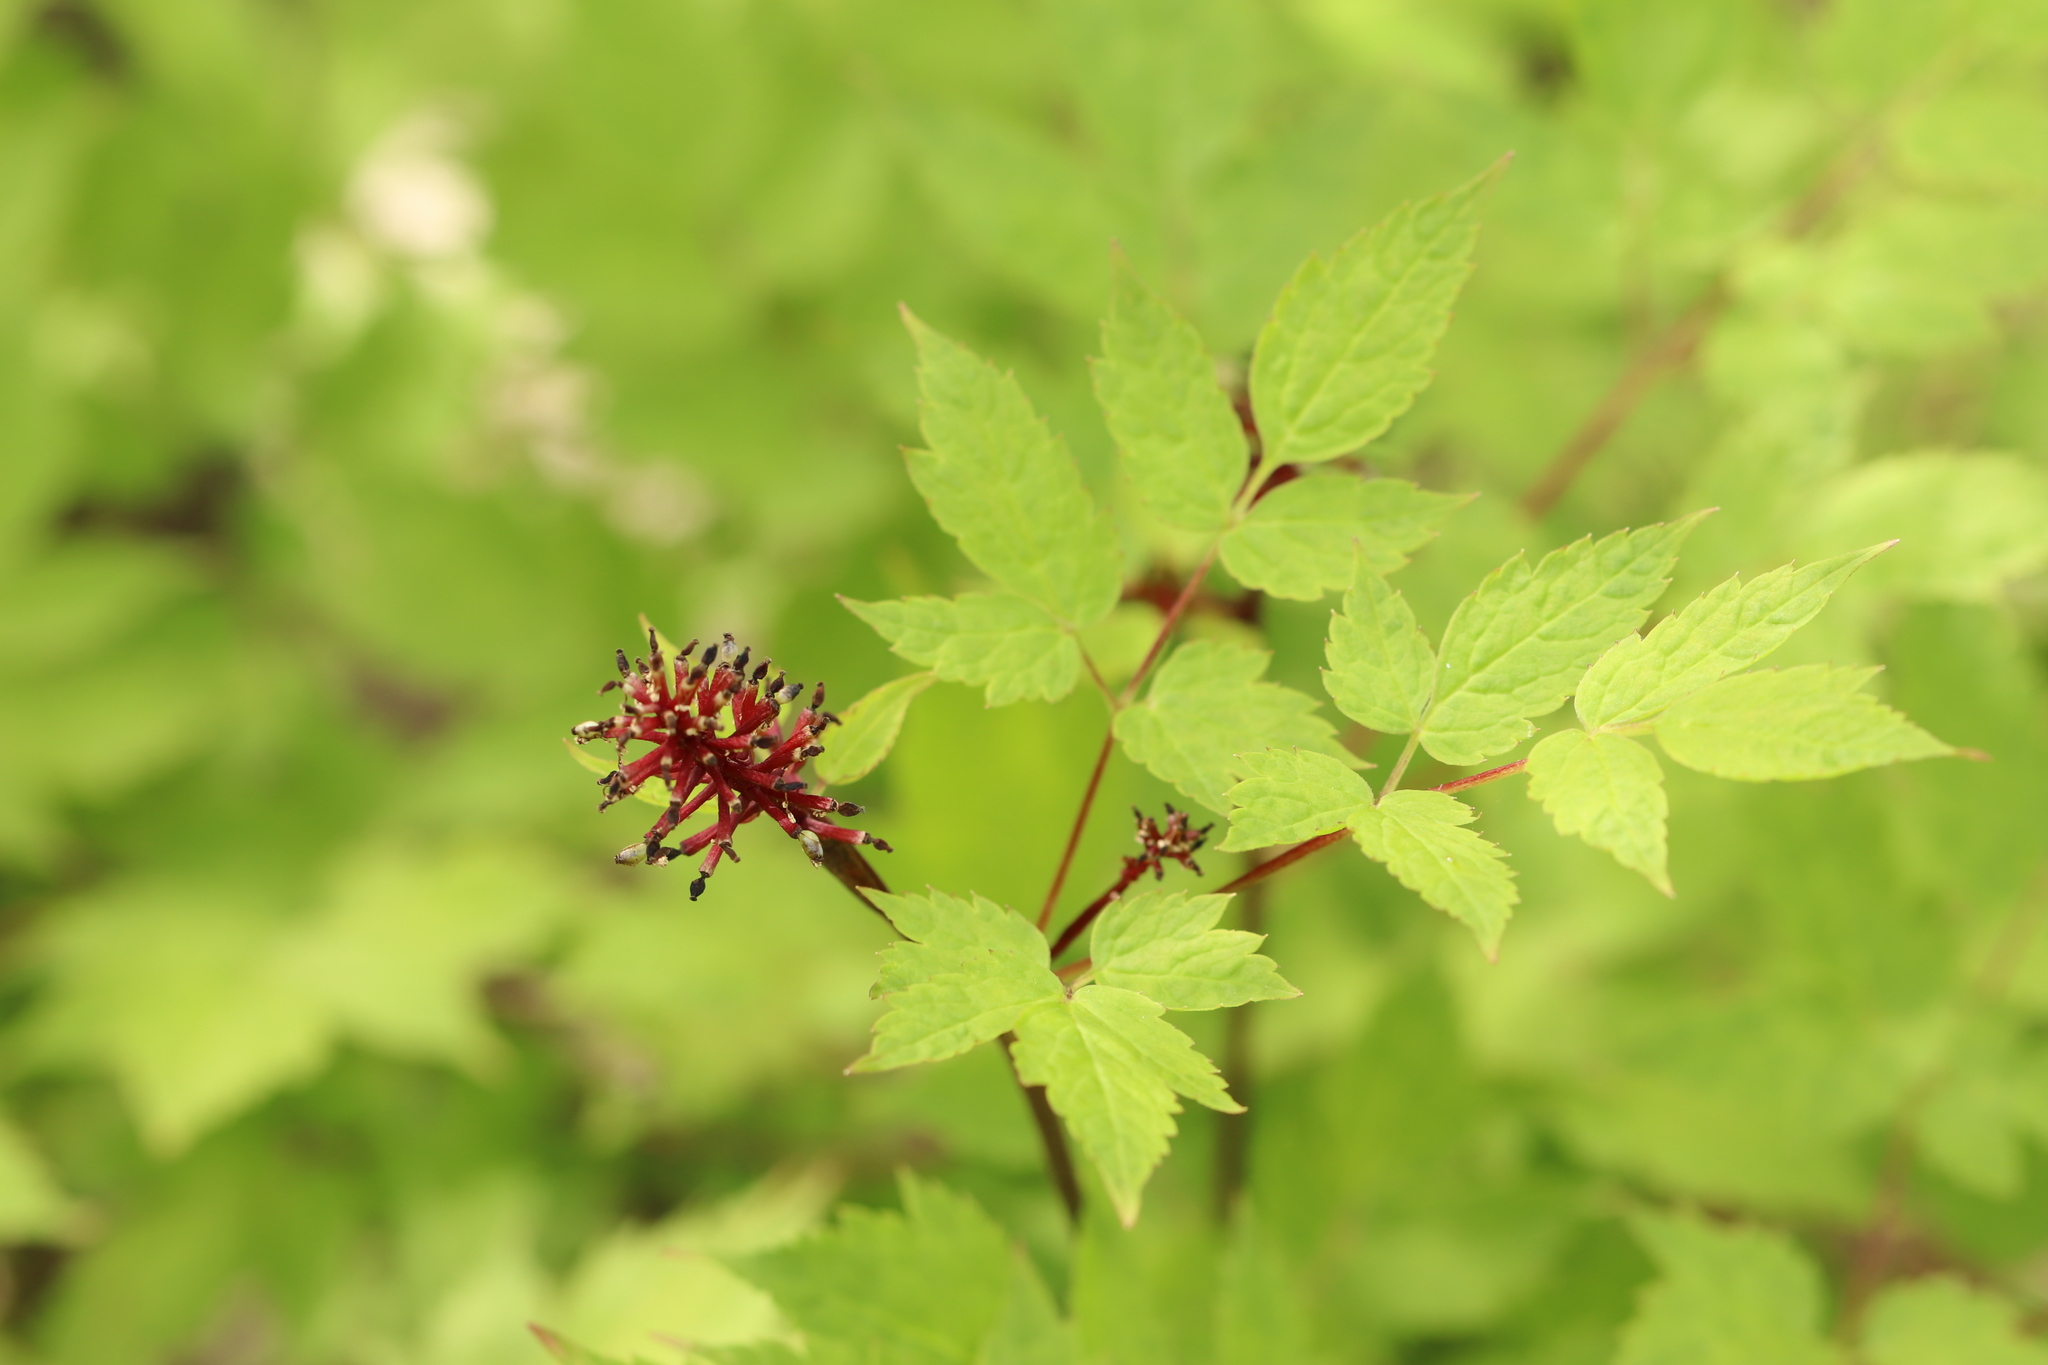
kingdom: Plantae
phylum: Tracheophyta
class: Magnoliopsida
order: Ranunculales
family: Ranunculaceae
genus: Actaea
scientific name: Actaea erythrocarpa
